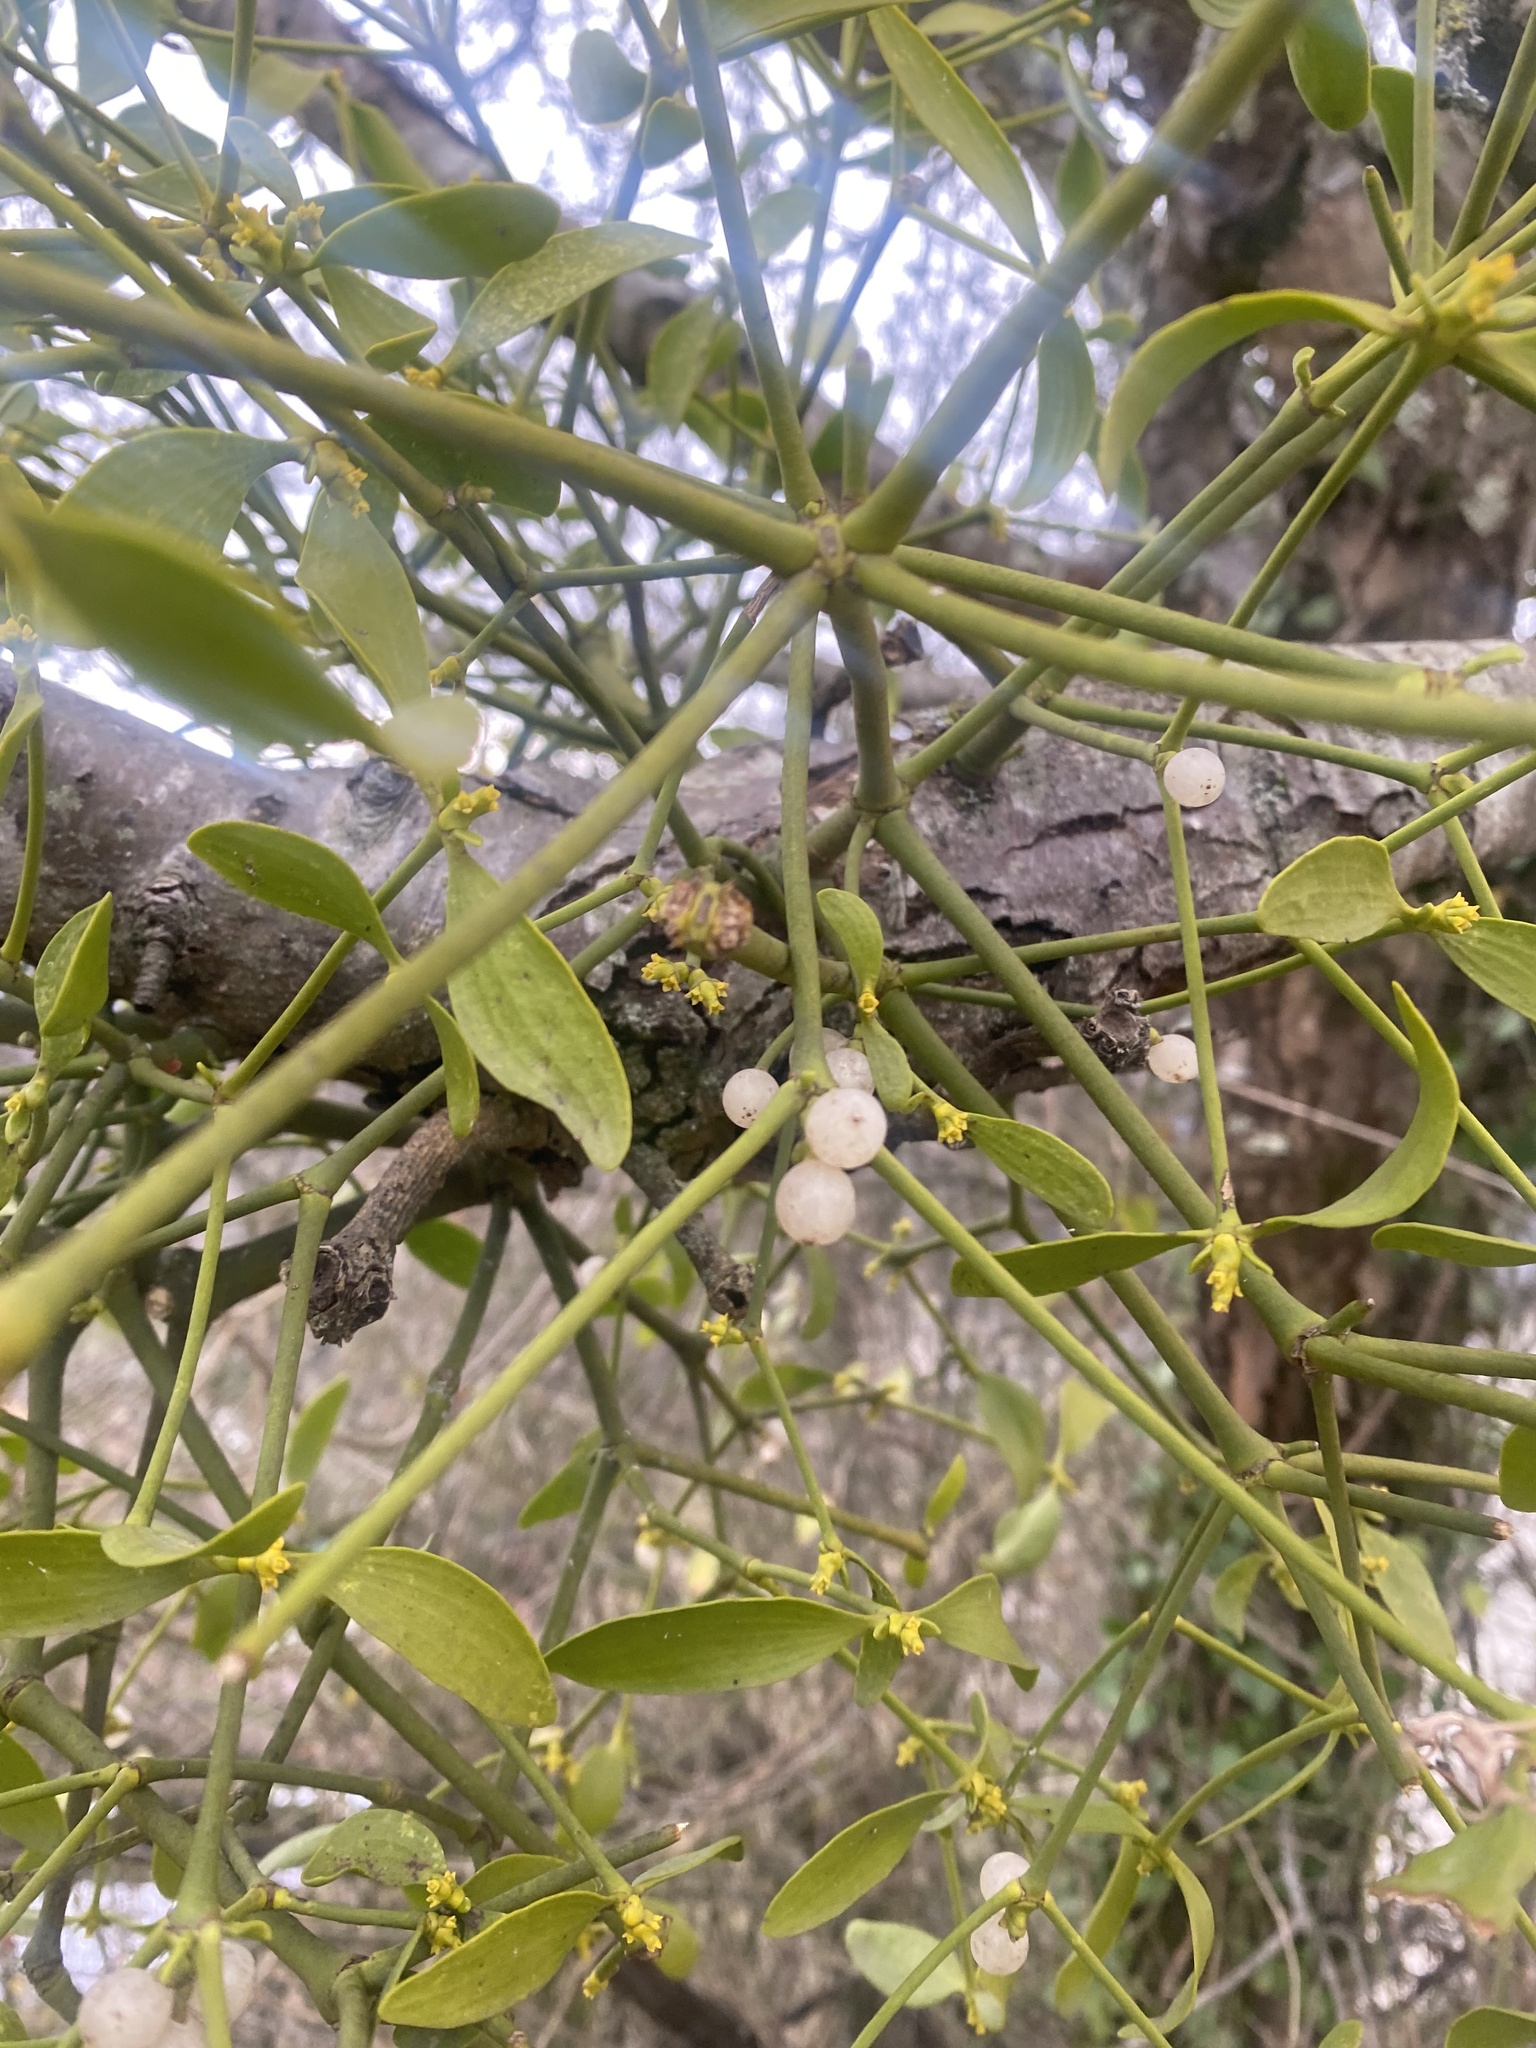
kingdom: Plantae
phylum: Tracheophyta
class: Magnoliopsida
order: Santalales
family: Viscaceae
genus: Viscum
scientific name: Viscum album
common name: Mistletoe
